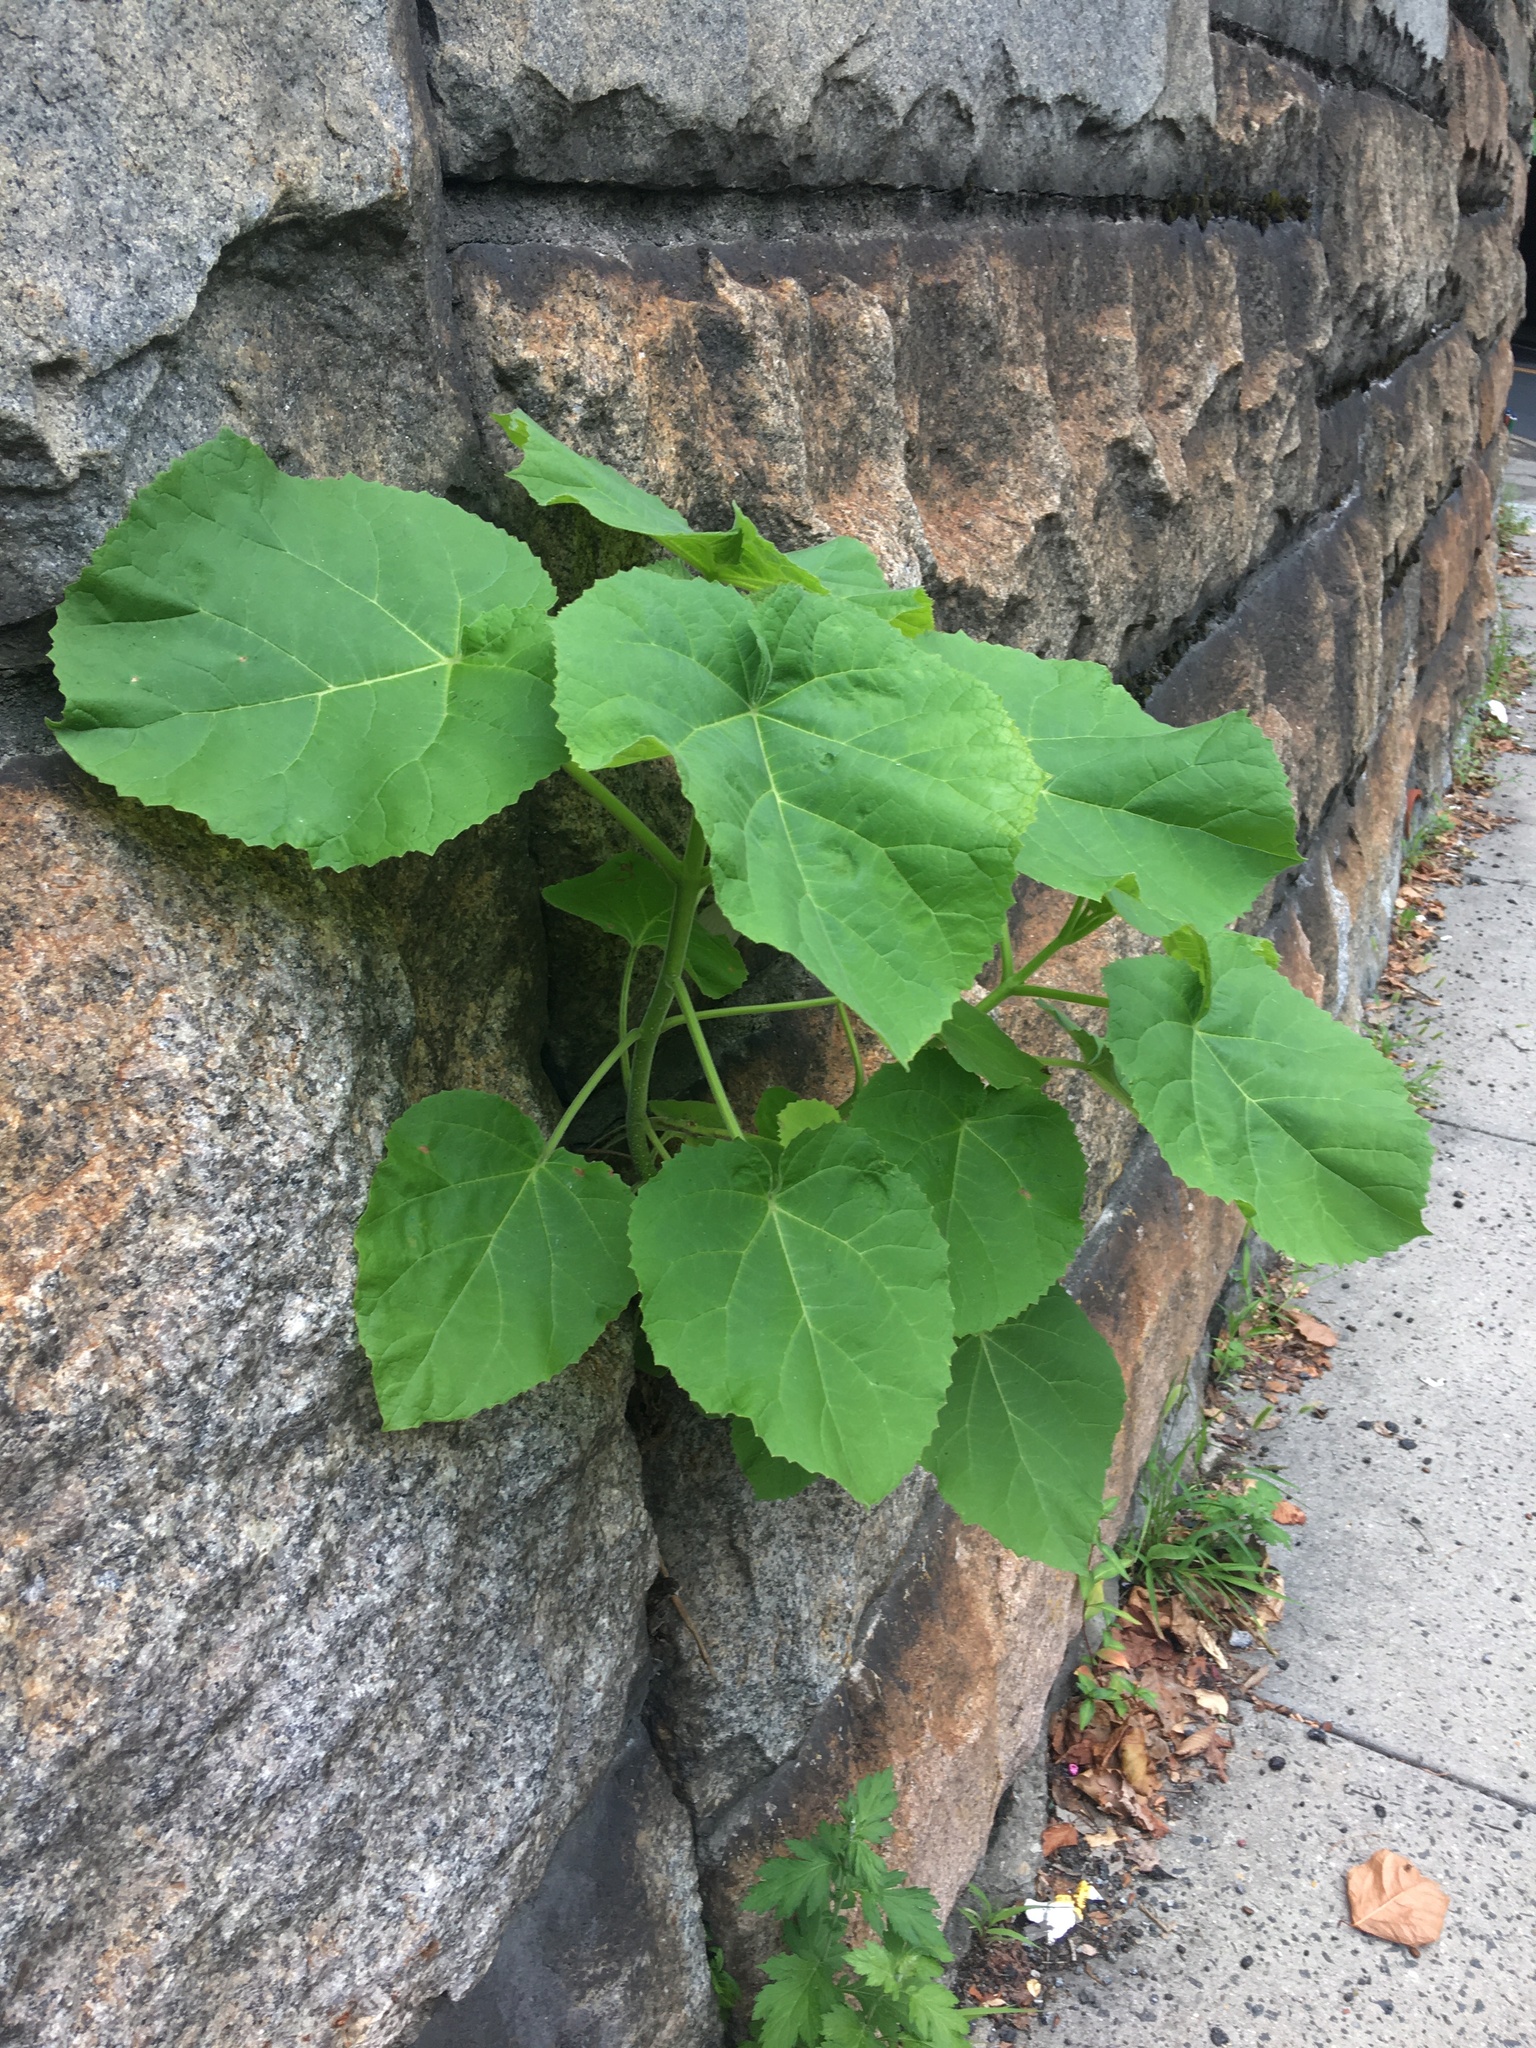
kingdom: Plantae
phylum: Tracheophyta
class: Magnoliopsida
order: Lamiales
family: Paulowniaceae
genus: Paulownia
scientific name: Paulownia tomentosa
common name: Foxglove-tree
